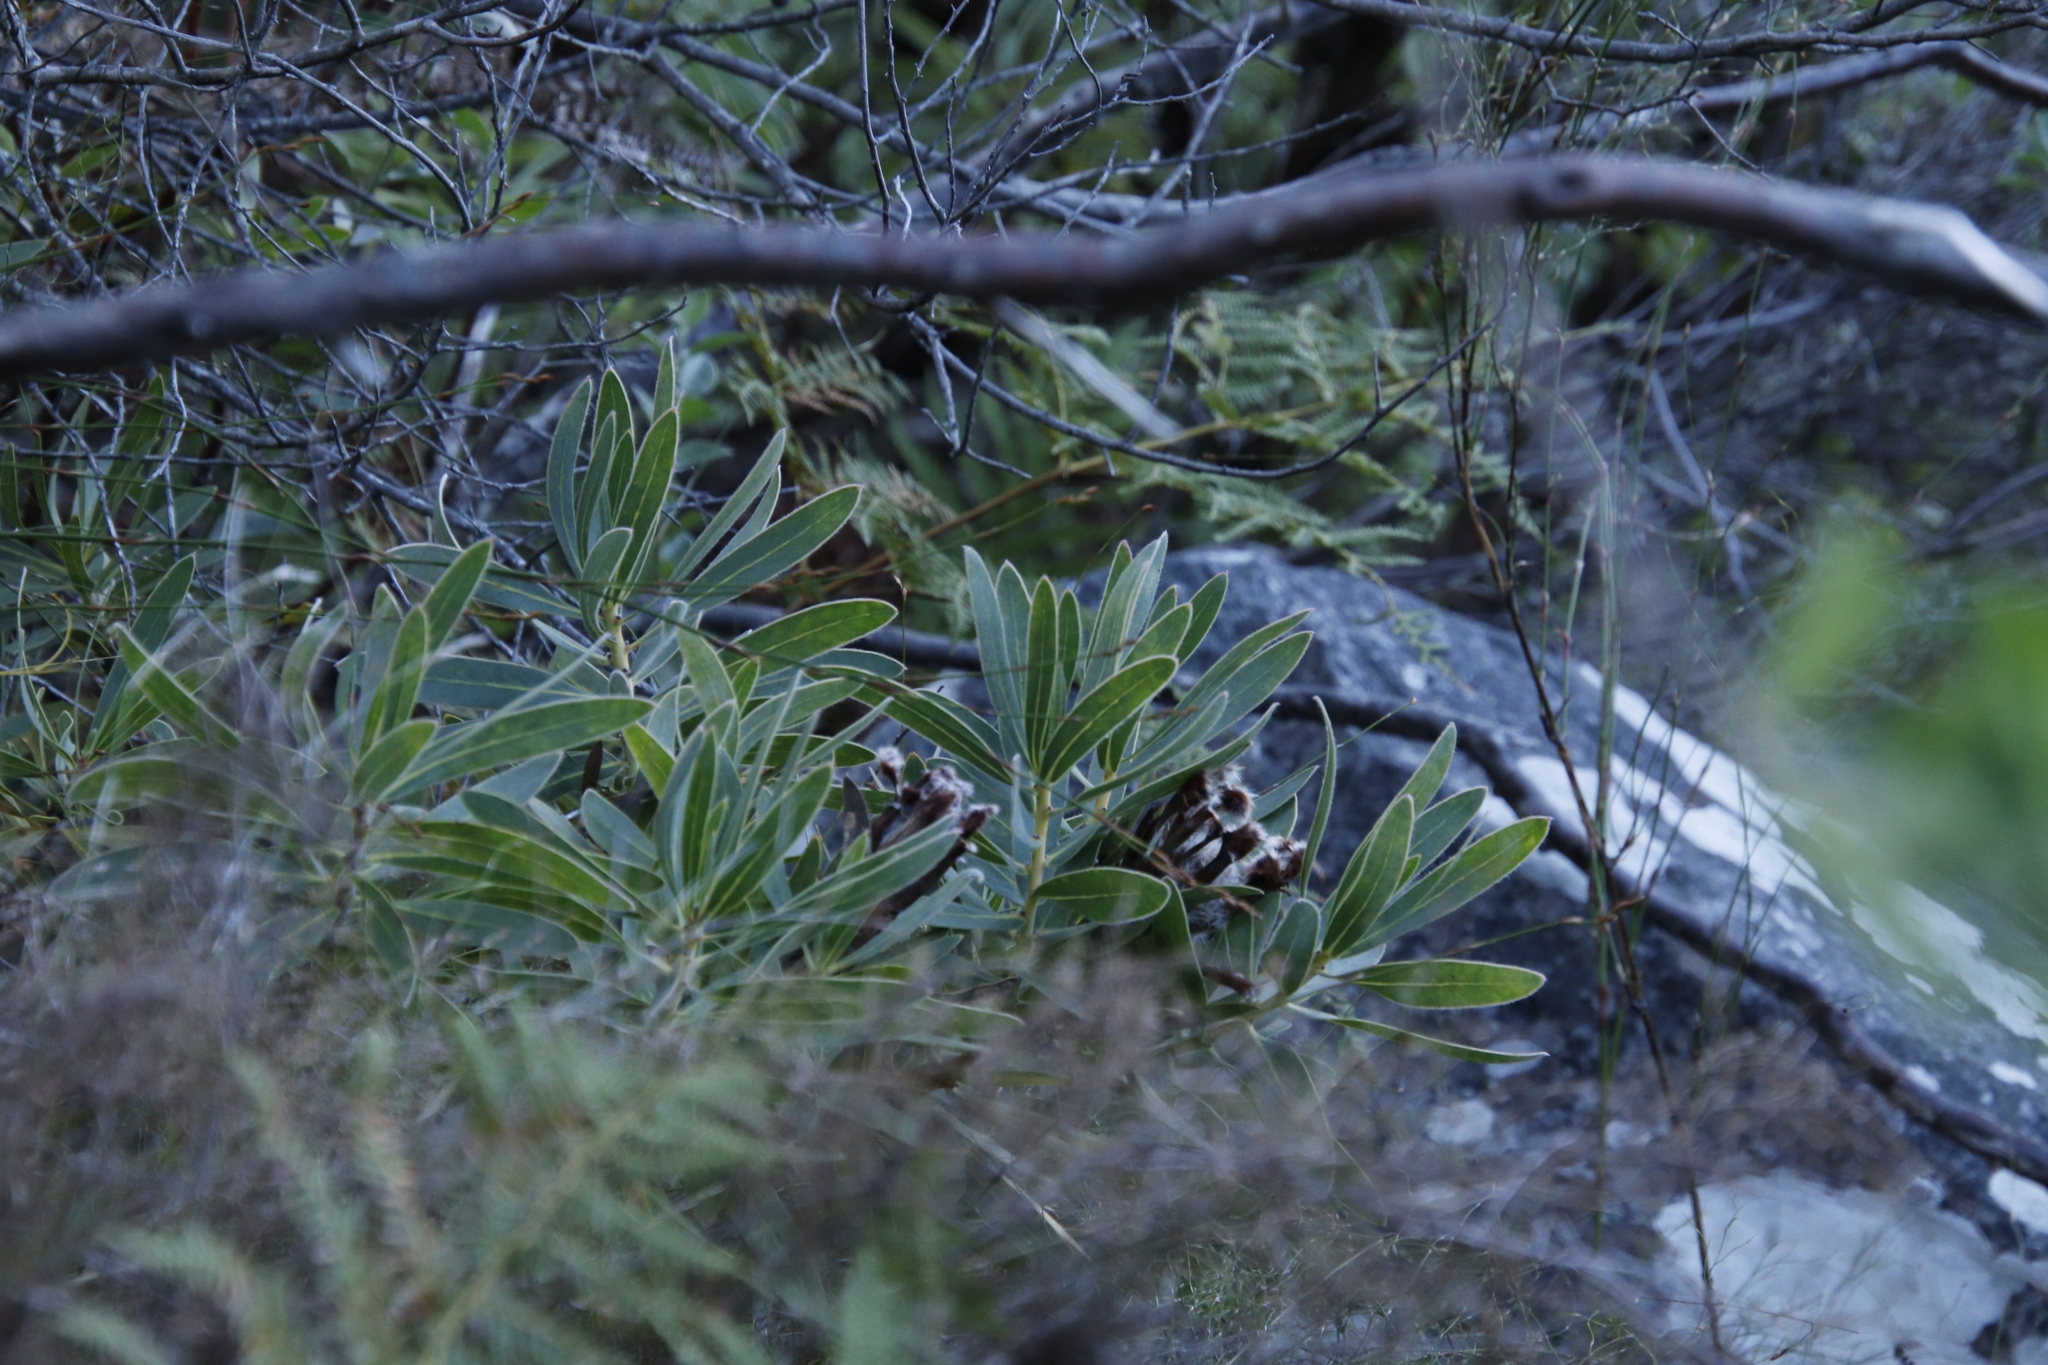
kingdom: Plantae
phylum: Tracheophyta
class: Magnoliopsida
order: Proteales
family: Proteaceae
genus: Protea
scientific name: Protea lepidocarpodendron
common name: Black-bearded protea
